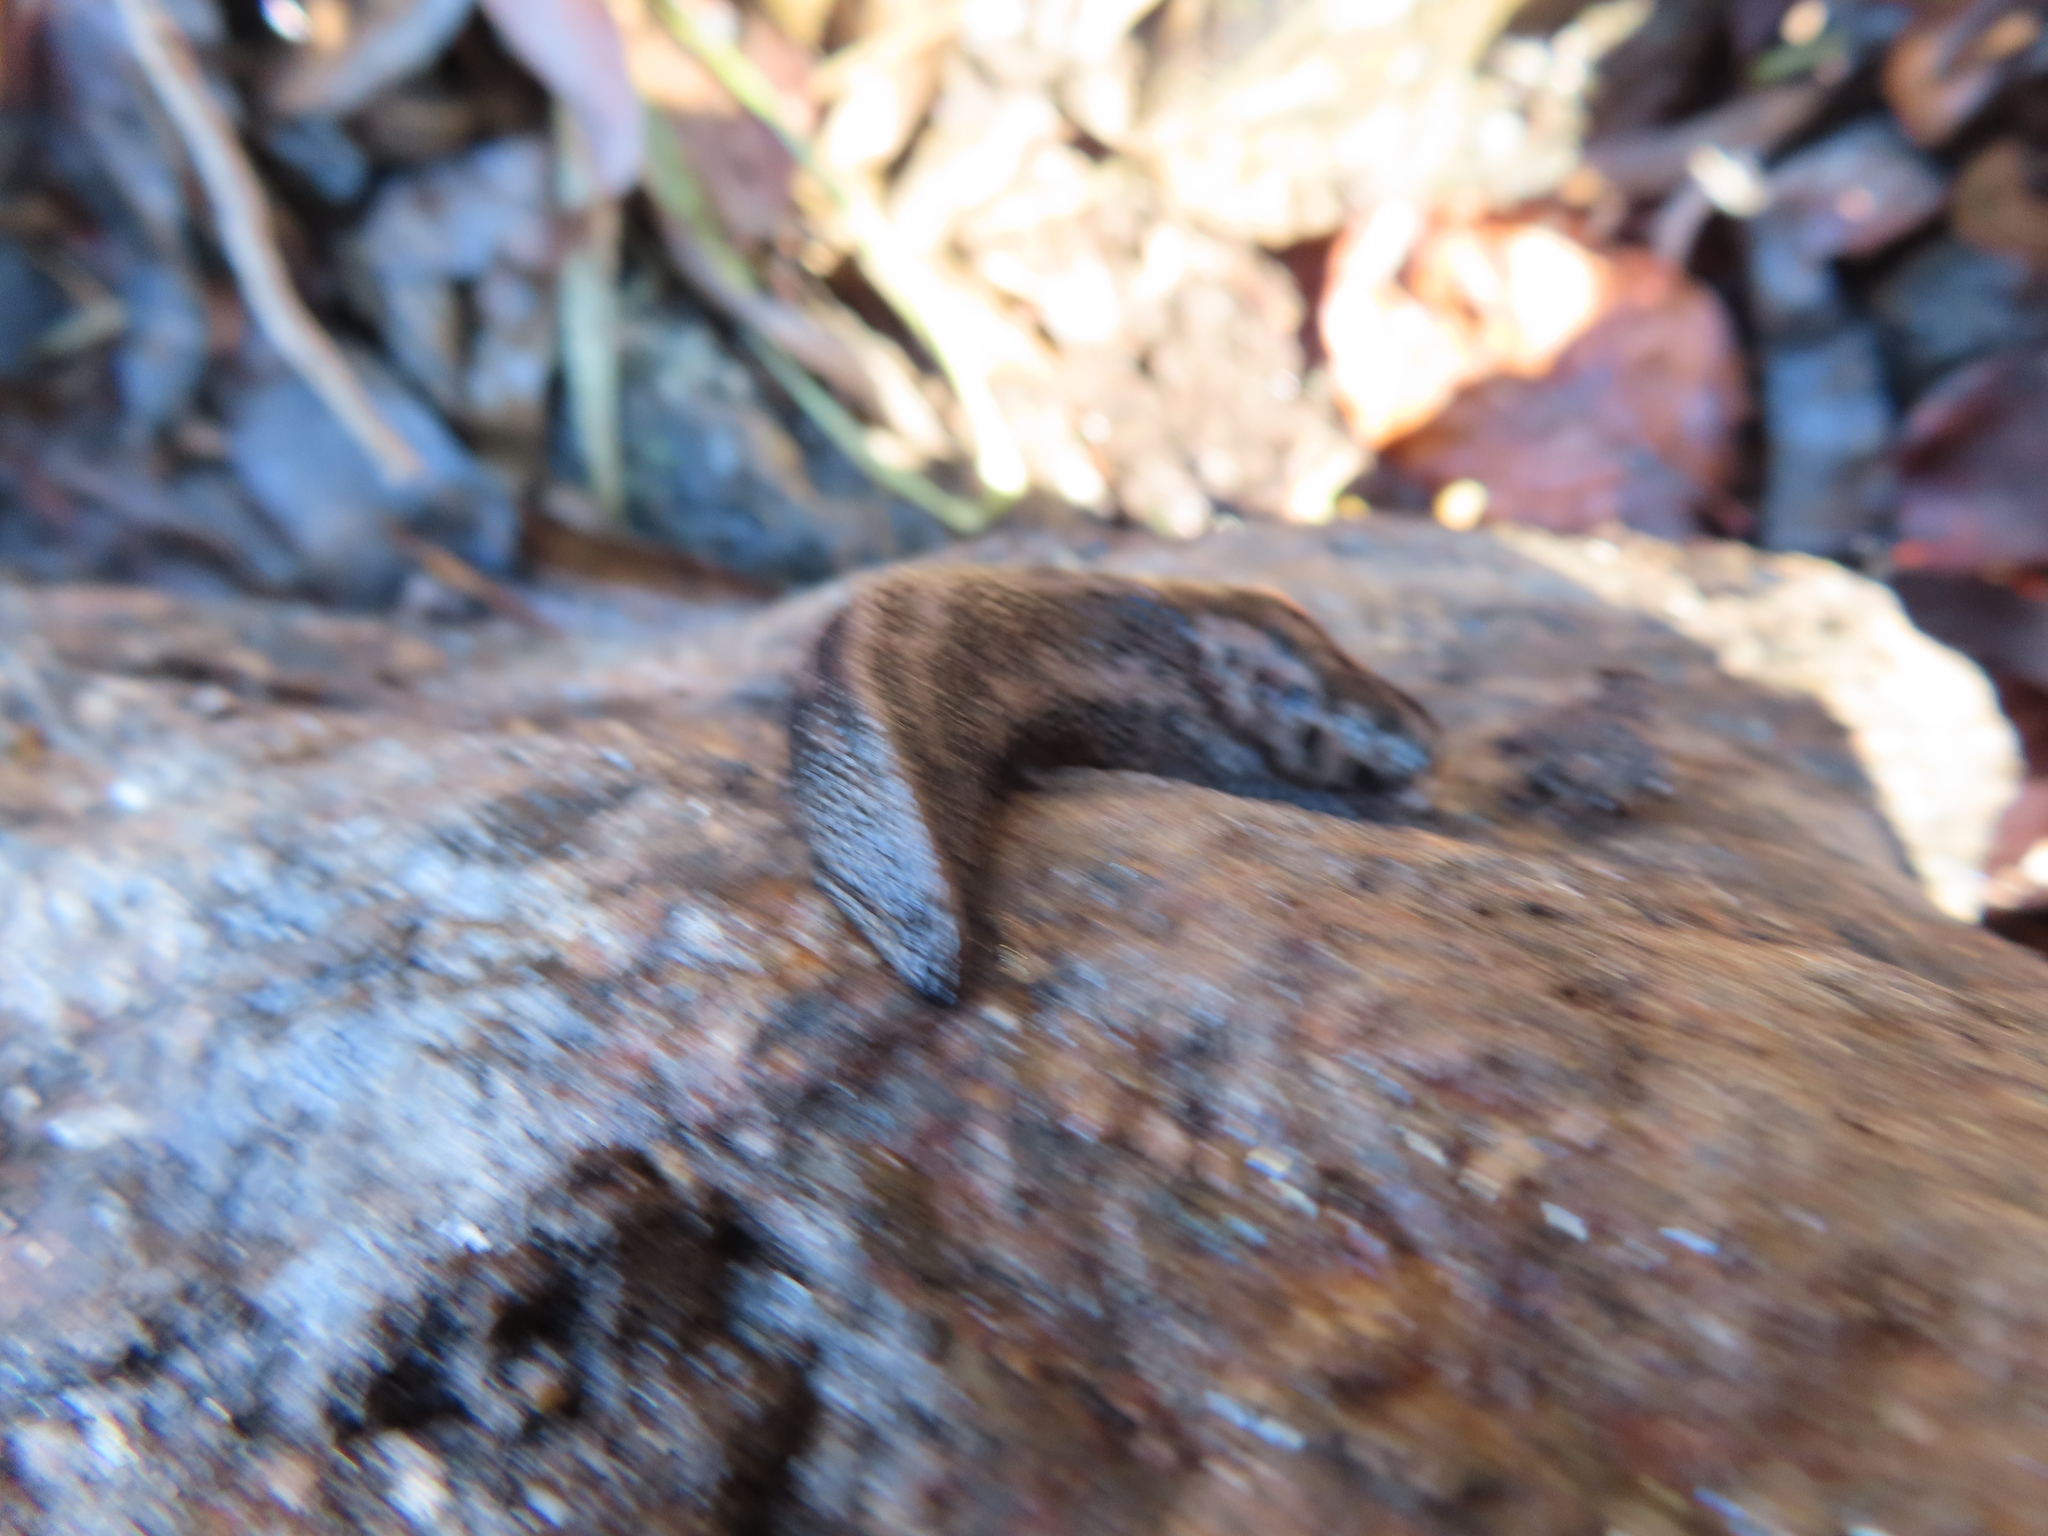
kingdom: Animalia
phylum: Mollusca
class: Gastropoda
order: Stylommatophora
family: Limacidae
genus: Limax
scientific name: Limax maximus
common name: Great grey slug
